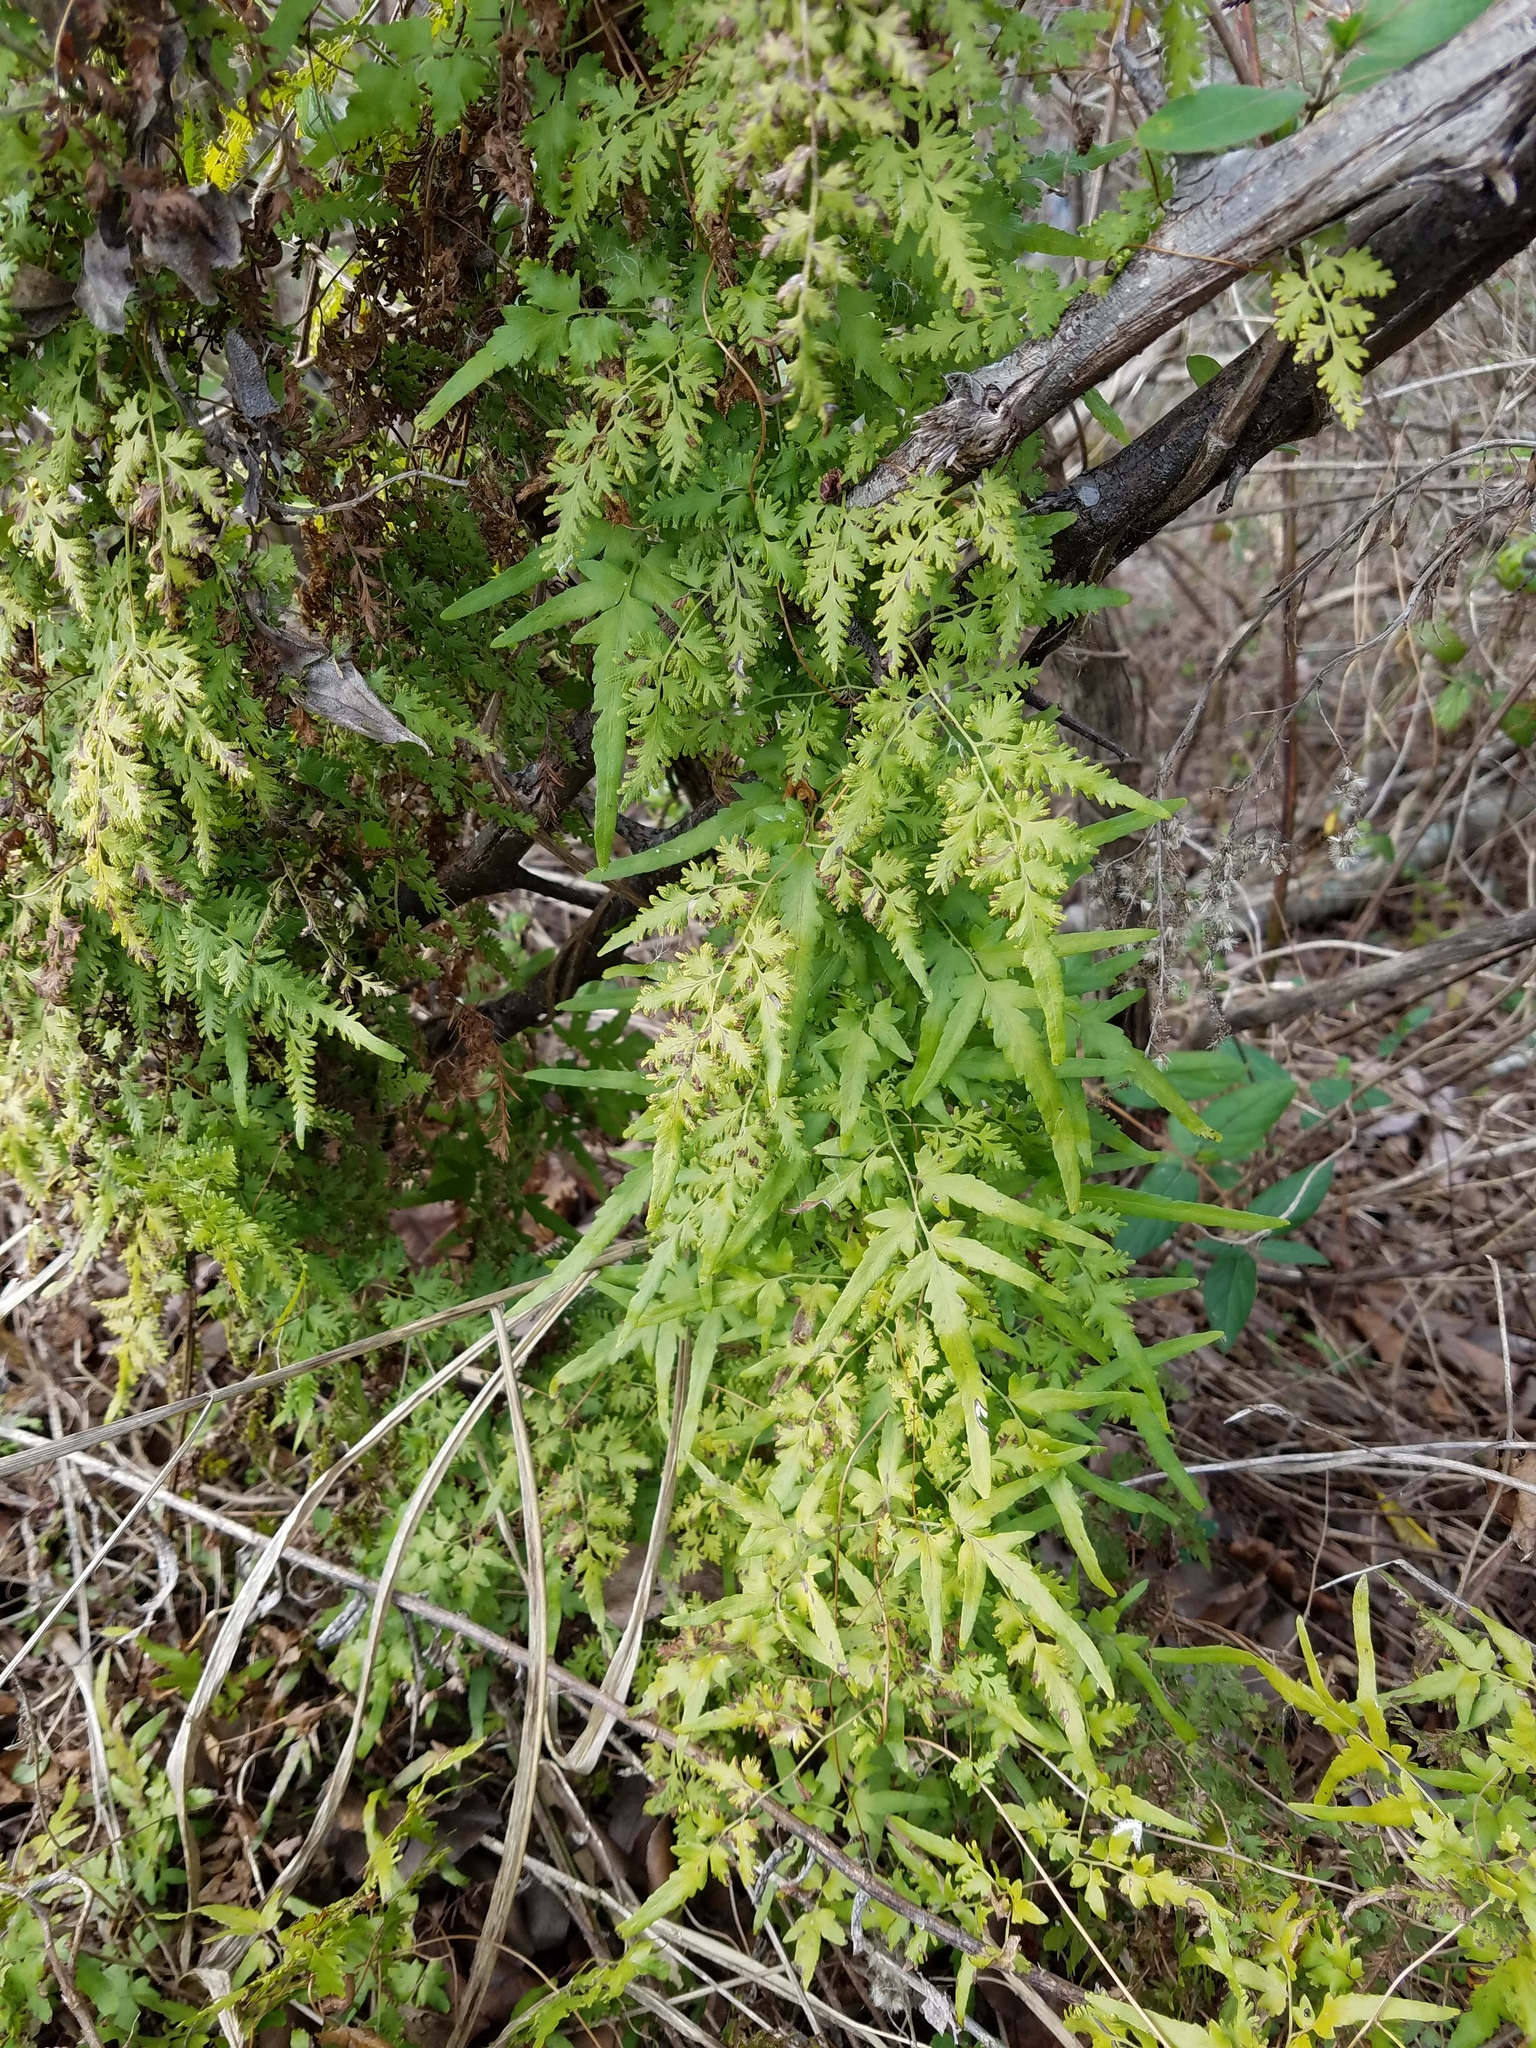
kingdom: Plantae
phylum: Tracheophyta
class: Polypodiopsida
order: Schizaeales
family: Lygodiaceae
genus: Lygodium
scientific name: Lygodium japonicum
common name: Japanese climbing fern
